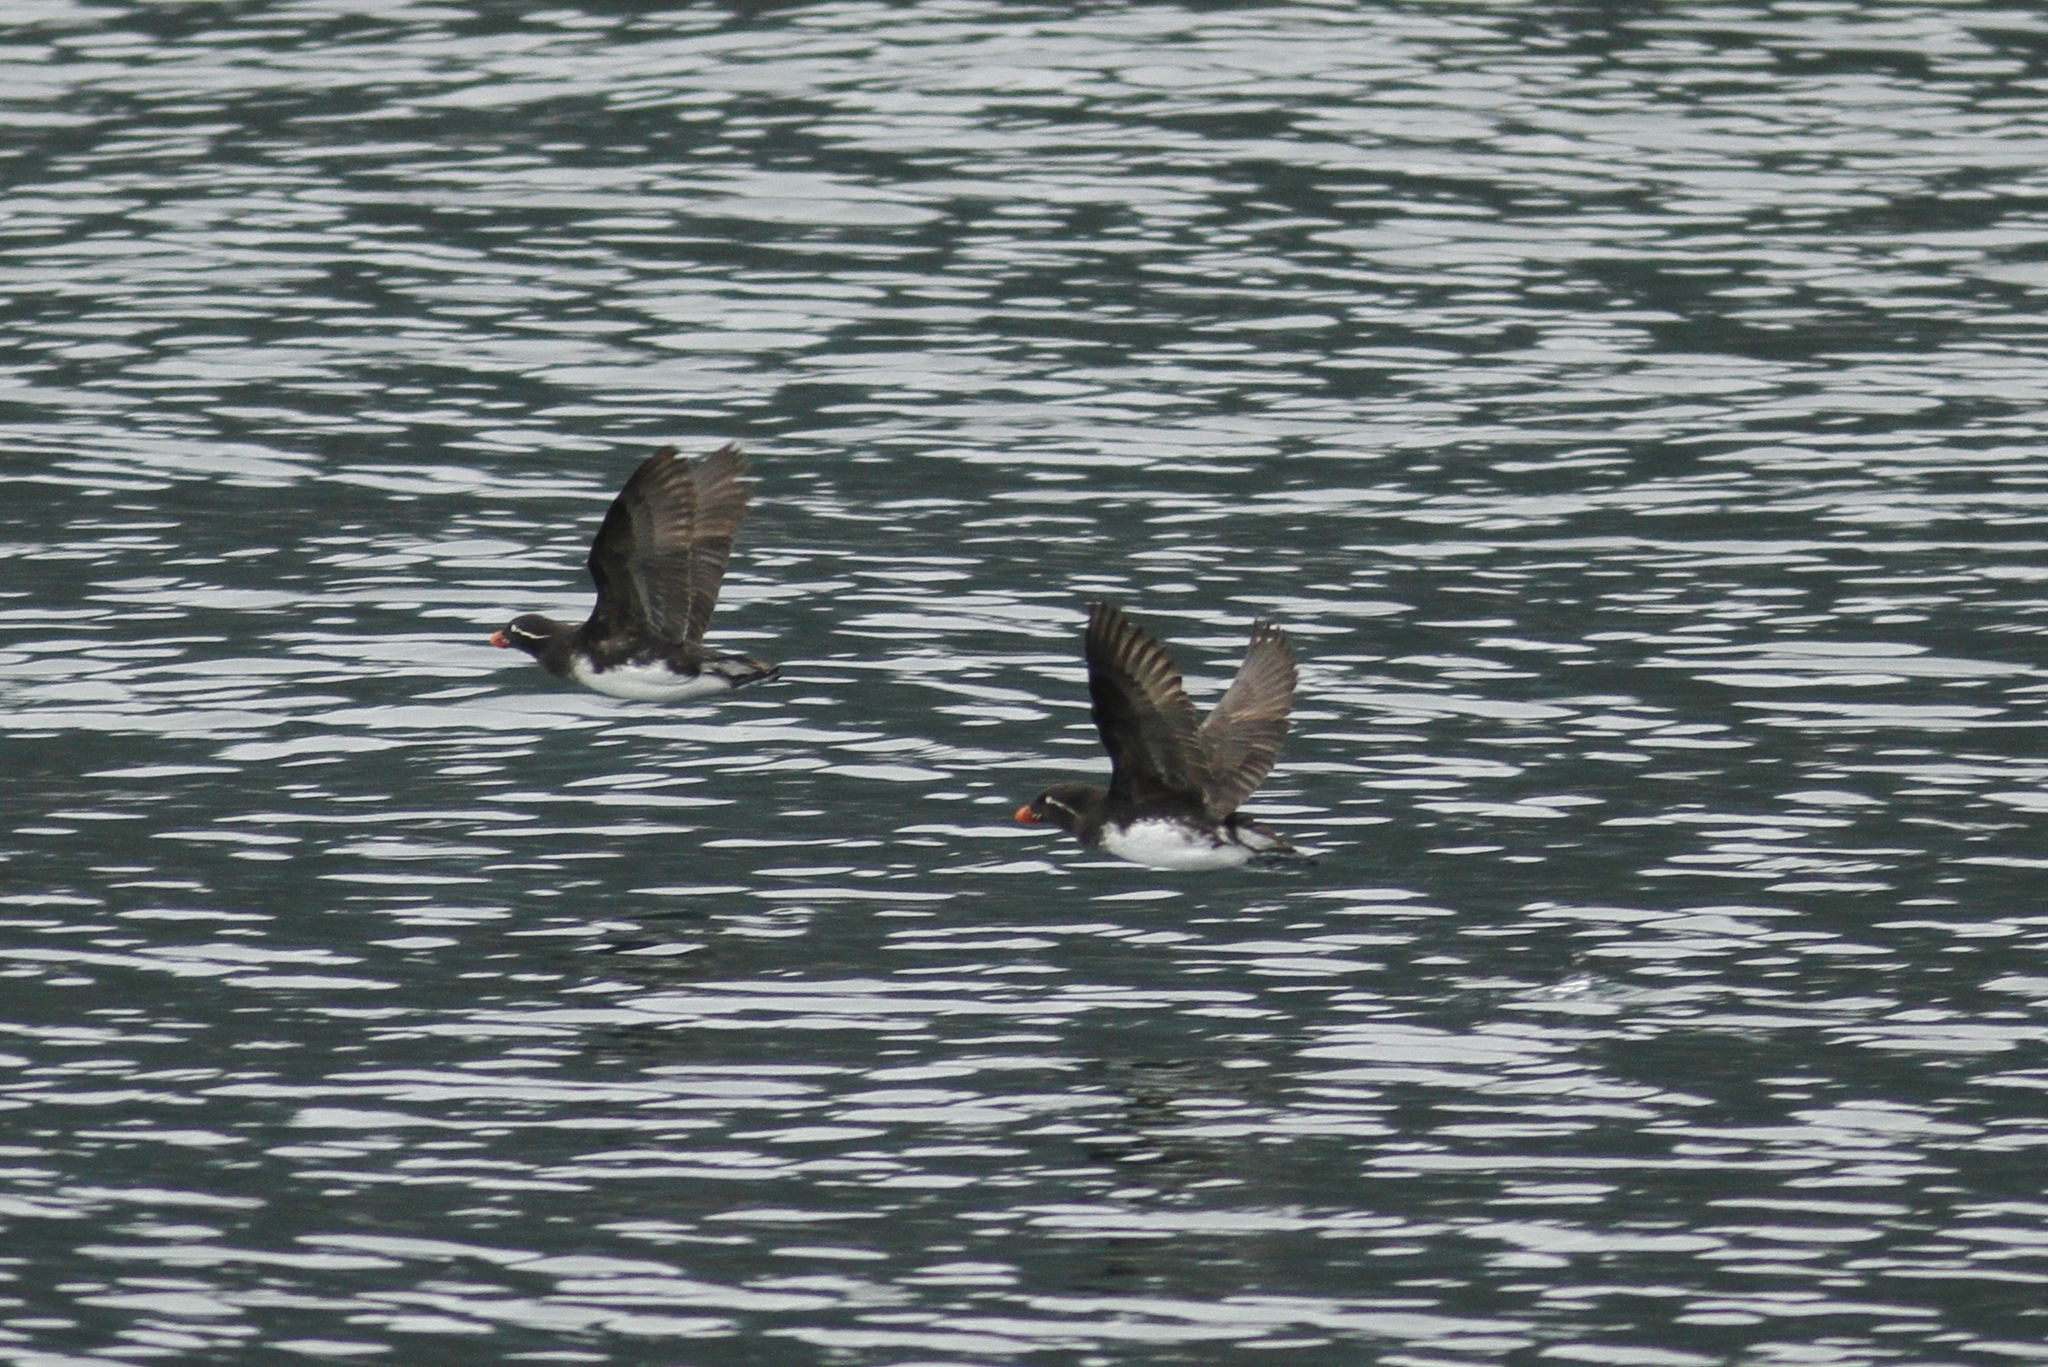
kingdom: Animalia
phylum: Chordata
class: Aves
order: Charadriiformes
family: Alcidae
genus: Aethia
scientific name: Aethia psittacula
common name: Parakeet auklet
